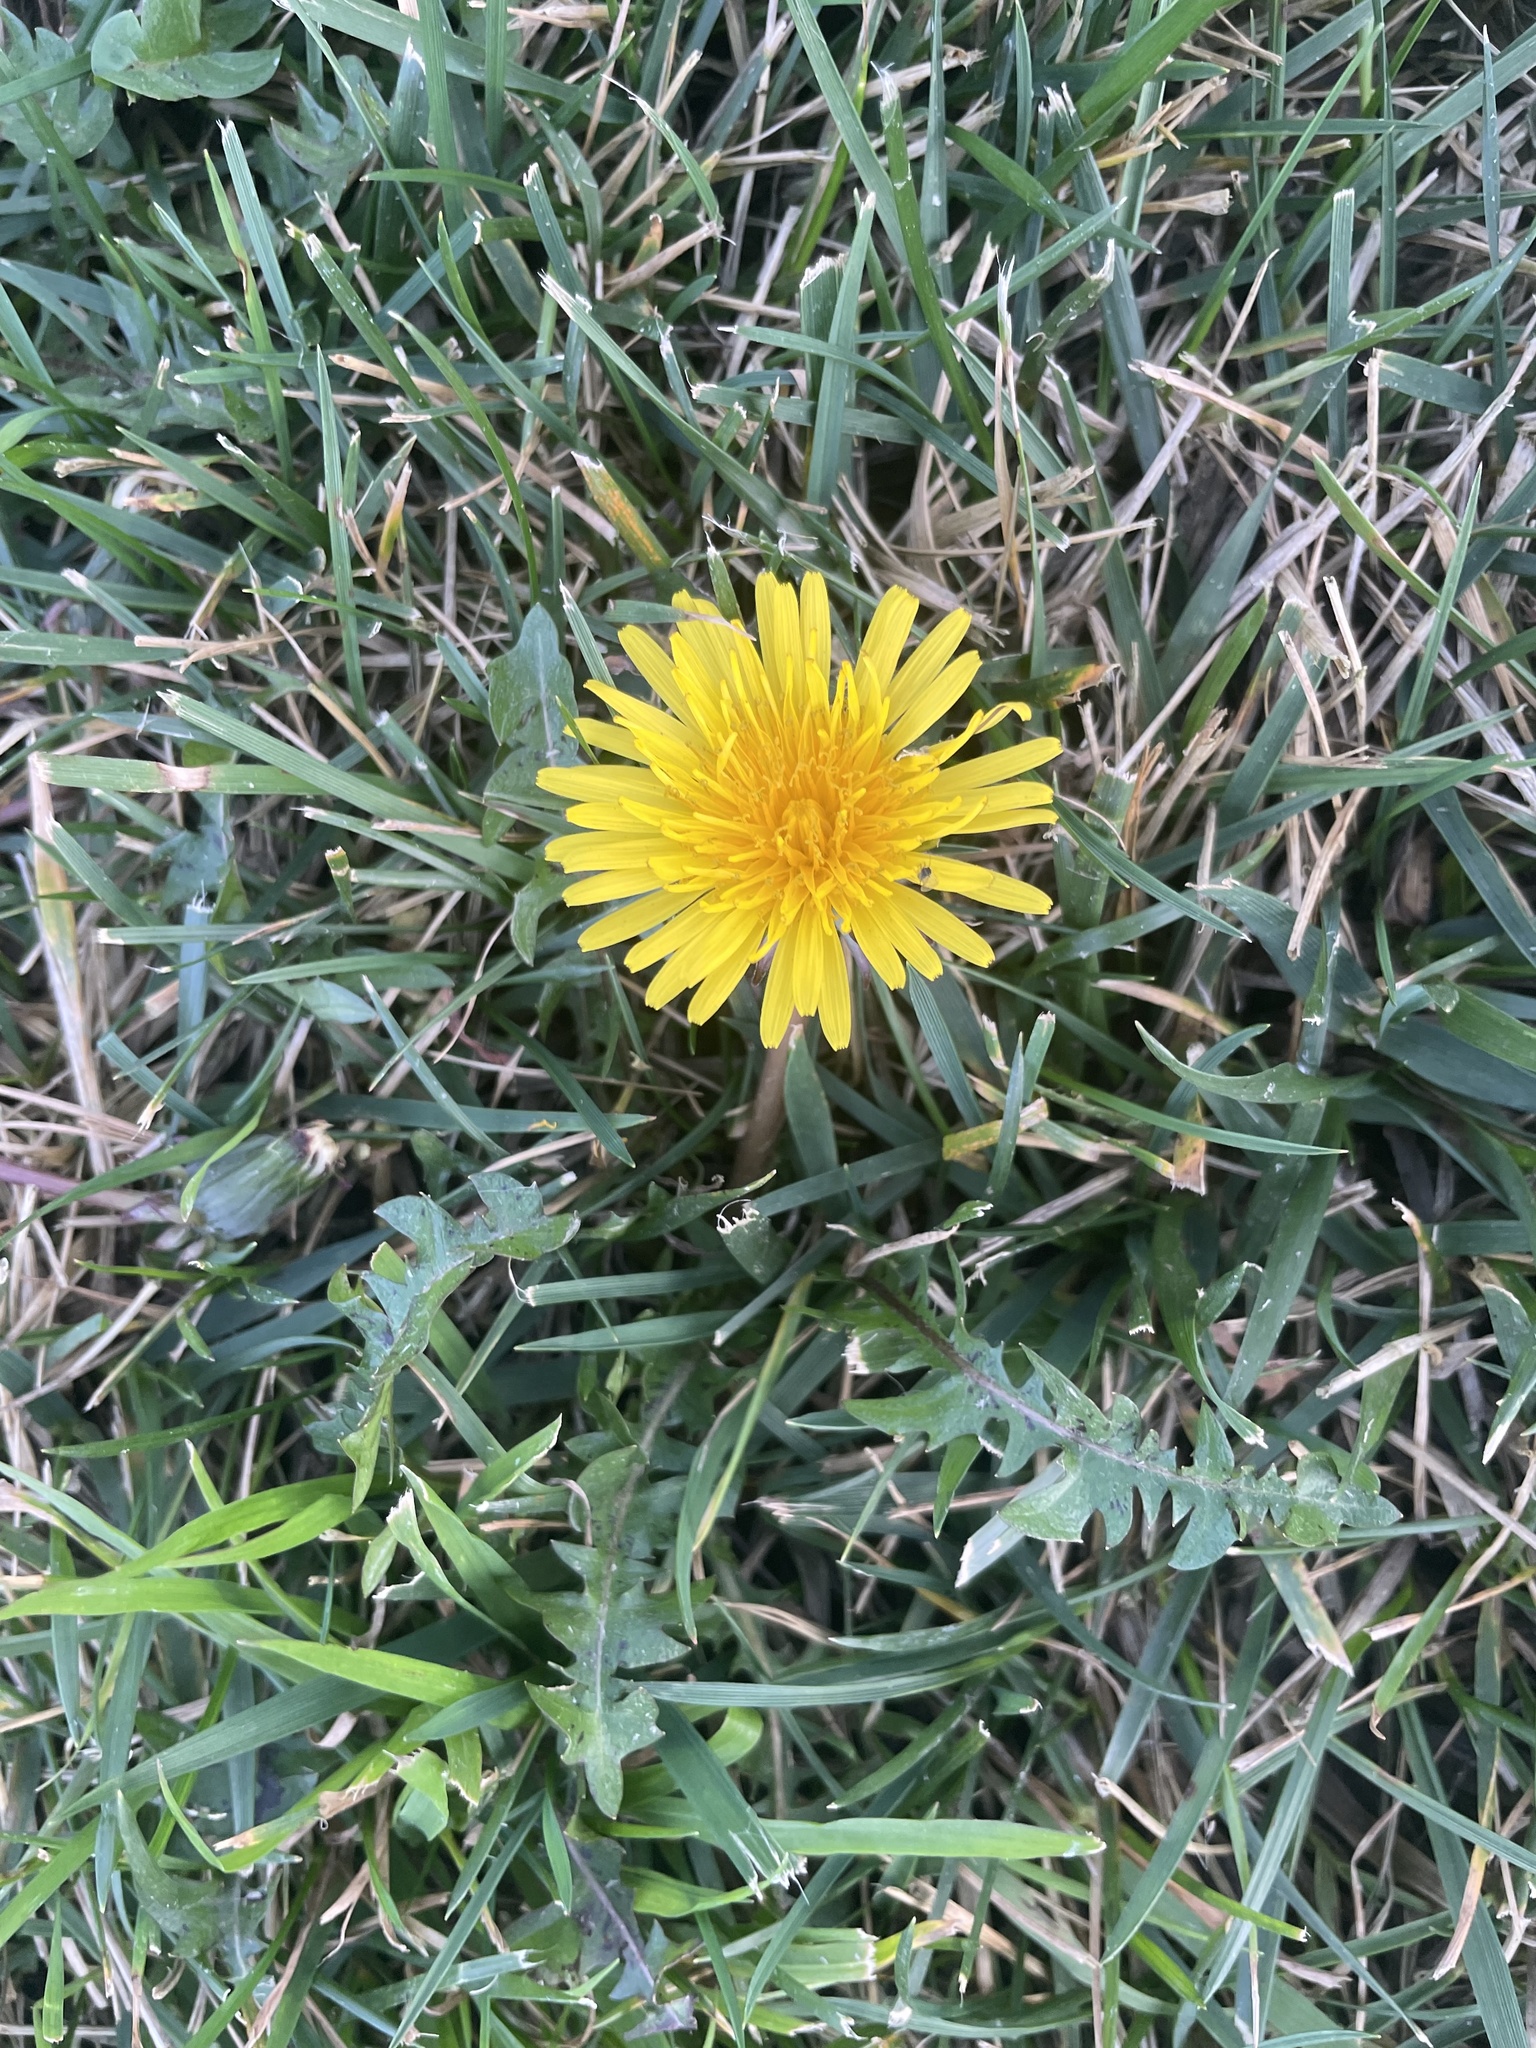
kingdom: Plantae
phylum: Tracheophyta
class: Magnoliopsida
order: Asterales
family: Asteraceae
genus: Taraxacum
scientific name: Taraxacum officinale
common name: Common dandelion
